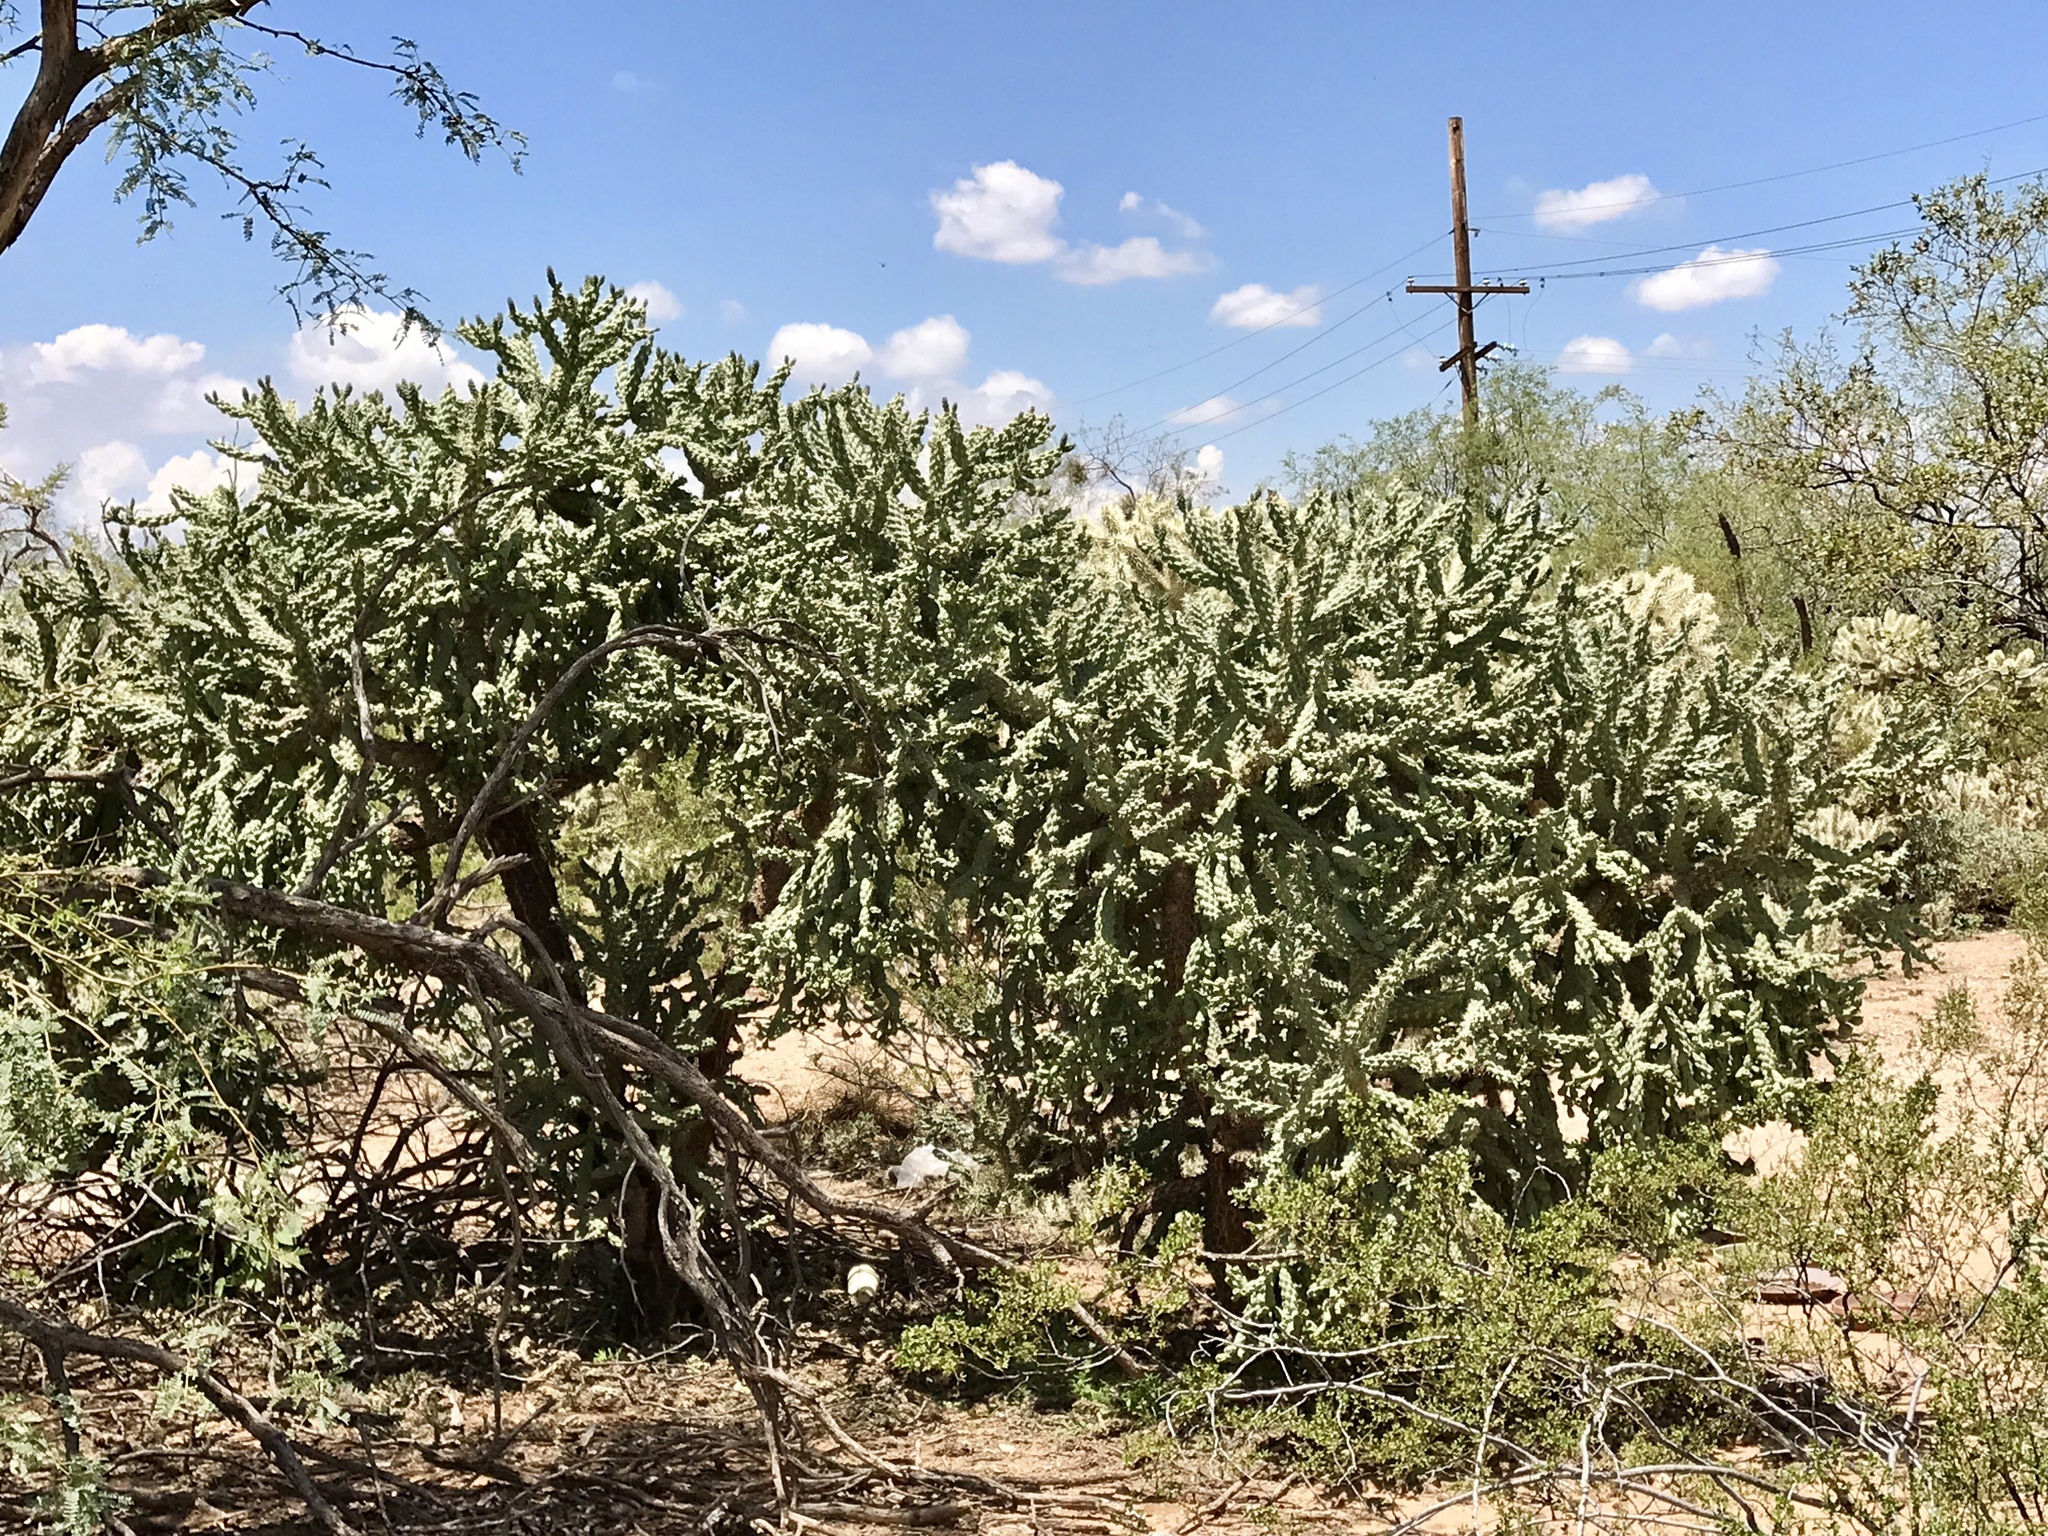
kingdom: Plantae
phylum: Tracheophyta
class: Magnoliopsida
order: Caryophyllales
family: Cactaceae
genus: Cylindropuntia
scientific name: Cylindropuntia fulgida
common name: Jumping cholla
